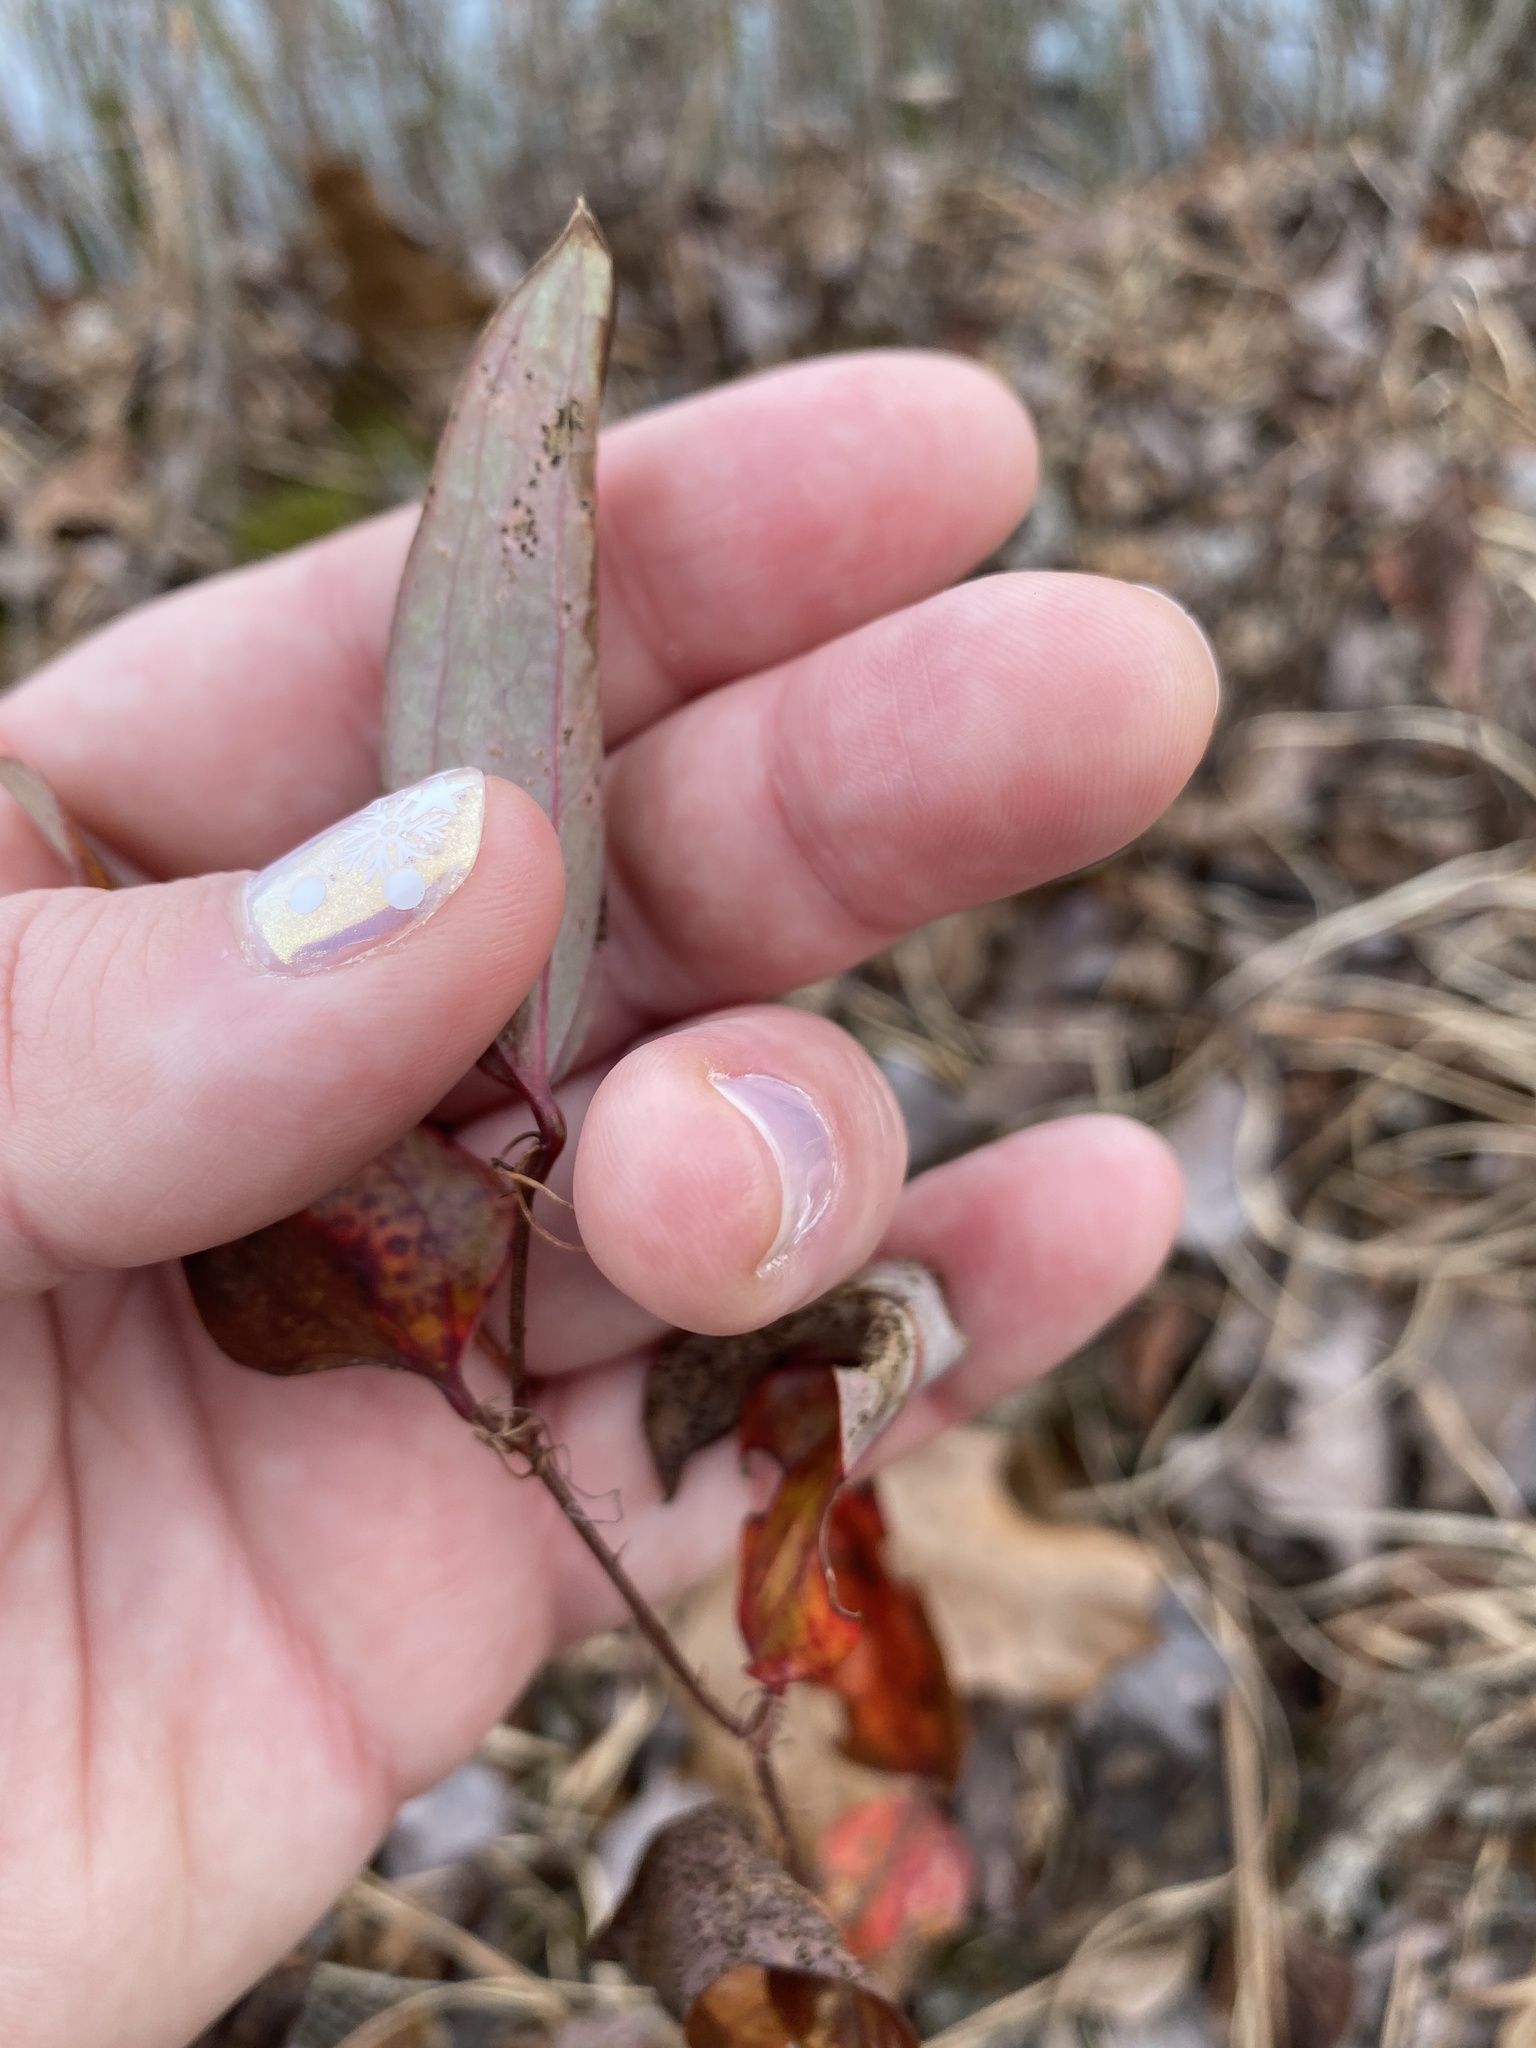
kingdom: Plantae
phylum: Tracheophyta
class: Liliopsida
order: Liliales
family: Smilacaceae
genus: Smilax
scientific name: Smilax glauca
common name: Cat greenbrier
